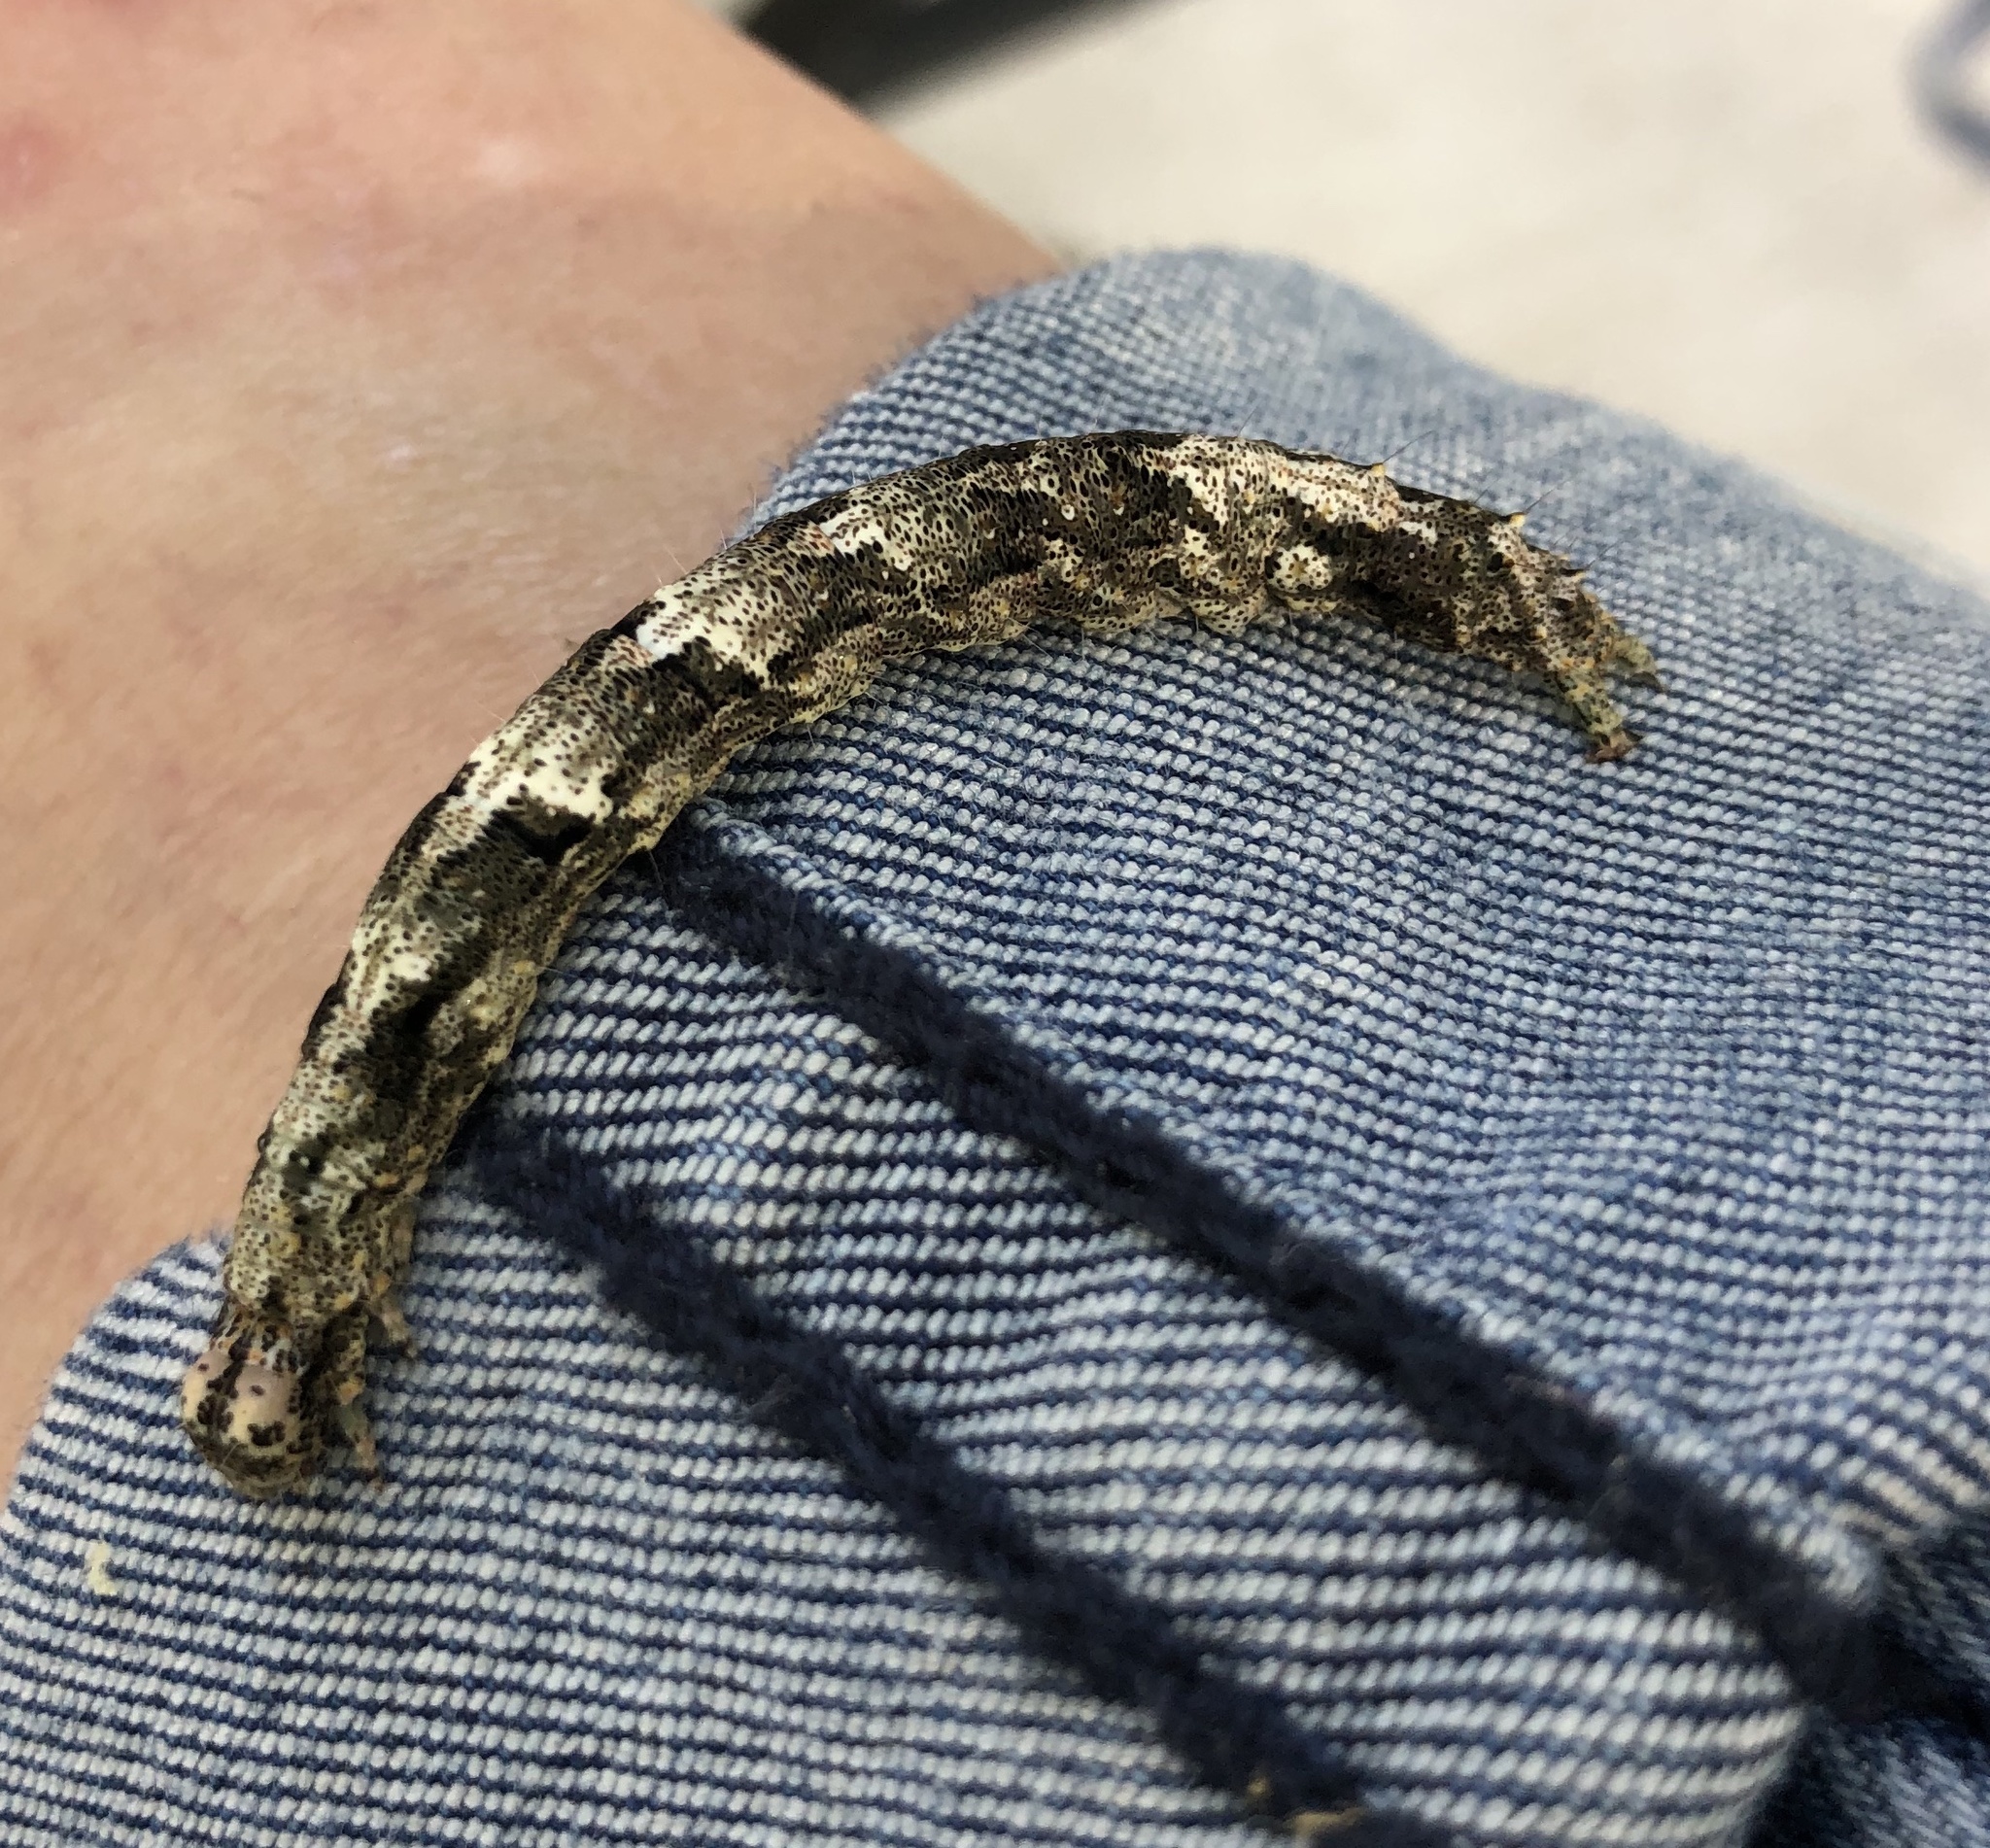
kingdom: Animalia
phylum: Arthropoda
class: Insecta
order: Lepidoptera
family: Erebidae
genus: Metria
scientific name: Metria amella
